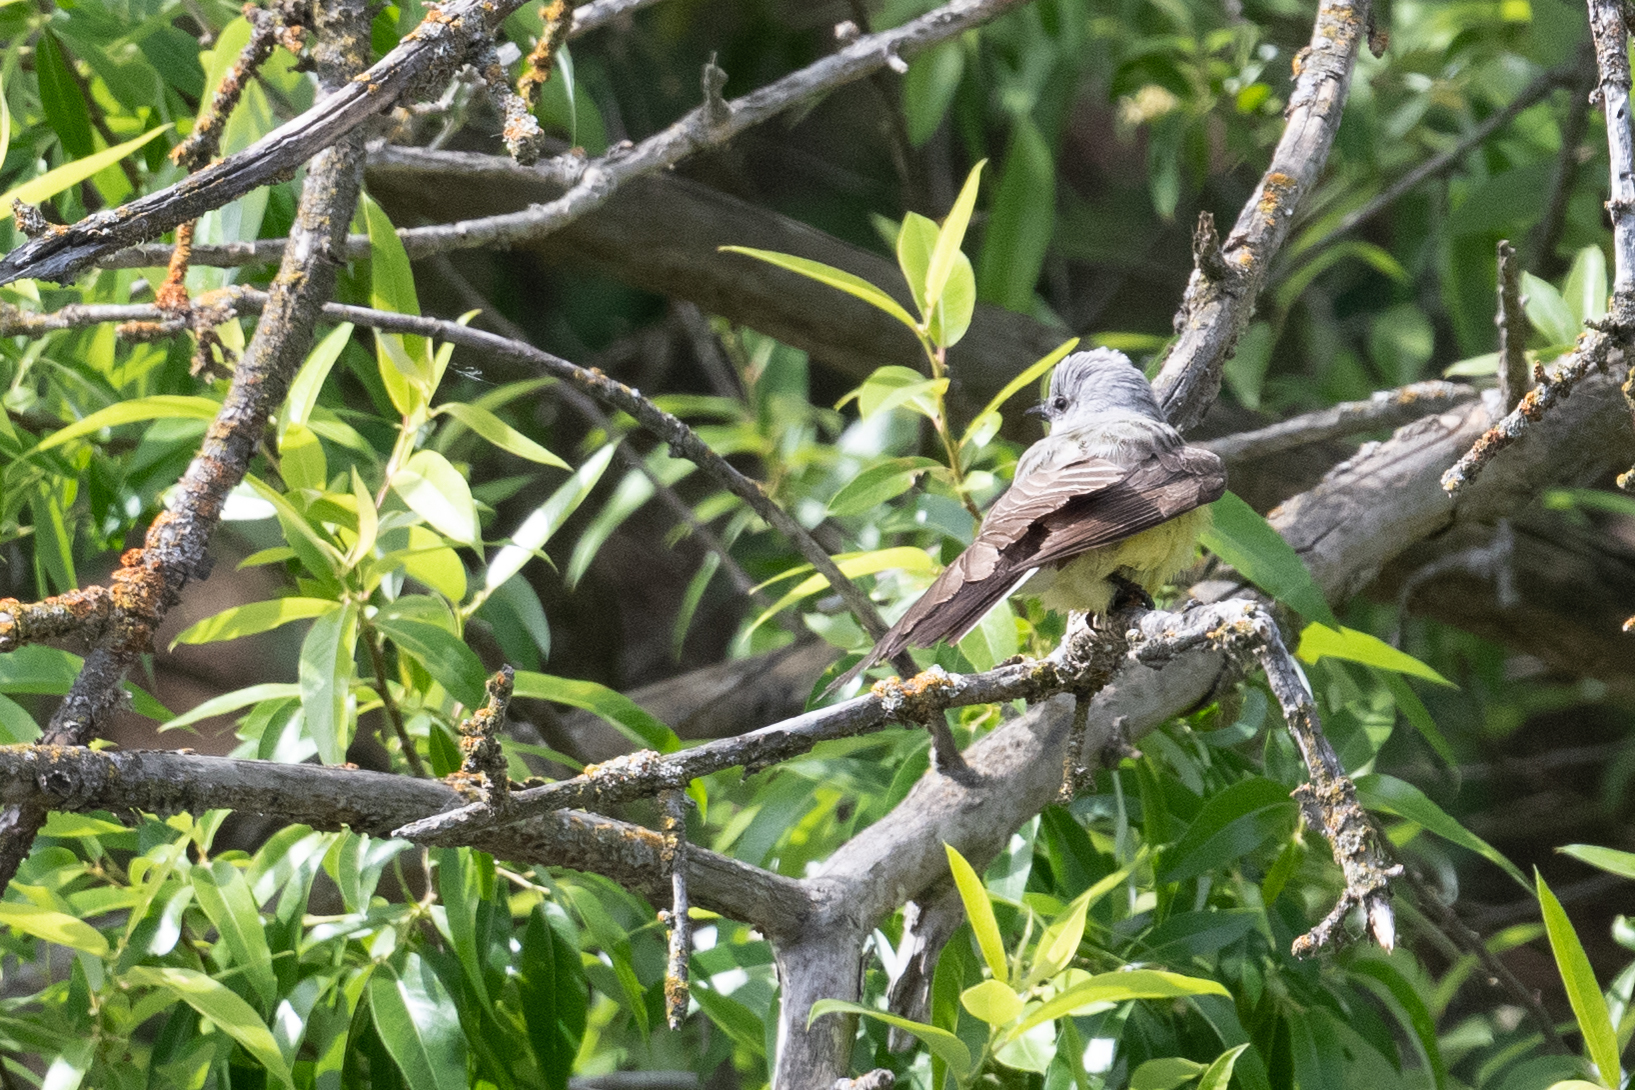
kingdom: Animalia
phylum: Chordata
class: Aves
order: Passeriformes
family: Tyrannidae
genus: Tyrannus
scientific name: Tyrannus verticalis
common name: Western kingbird
